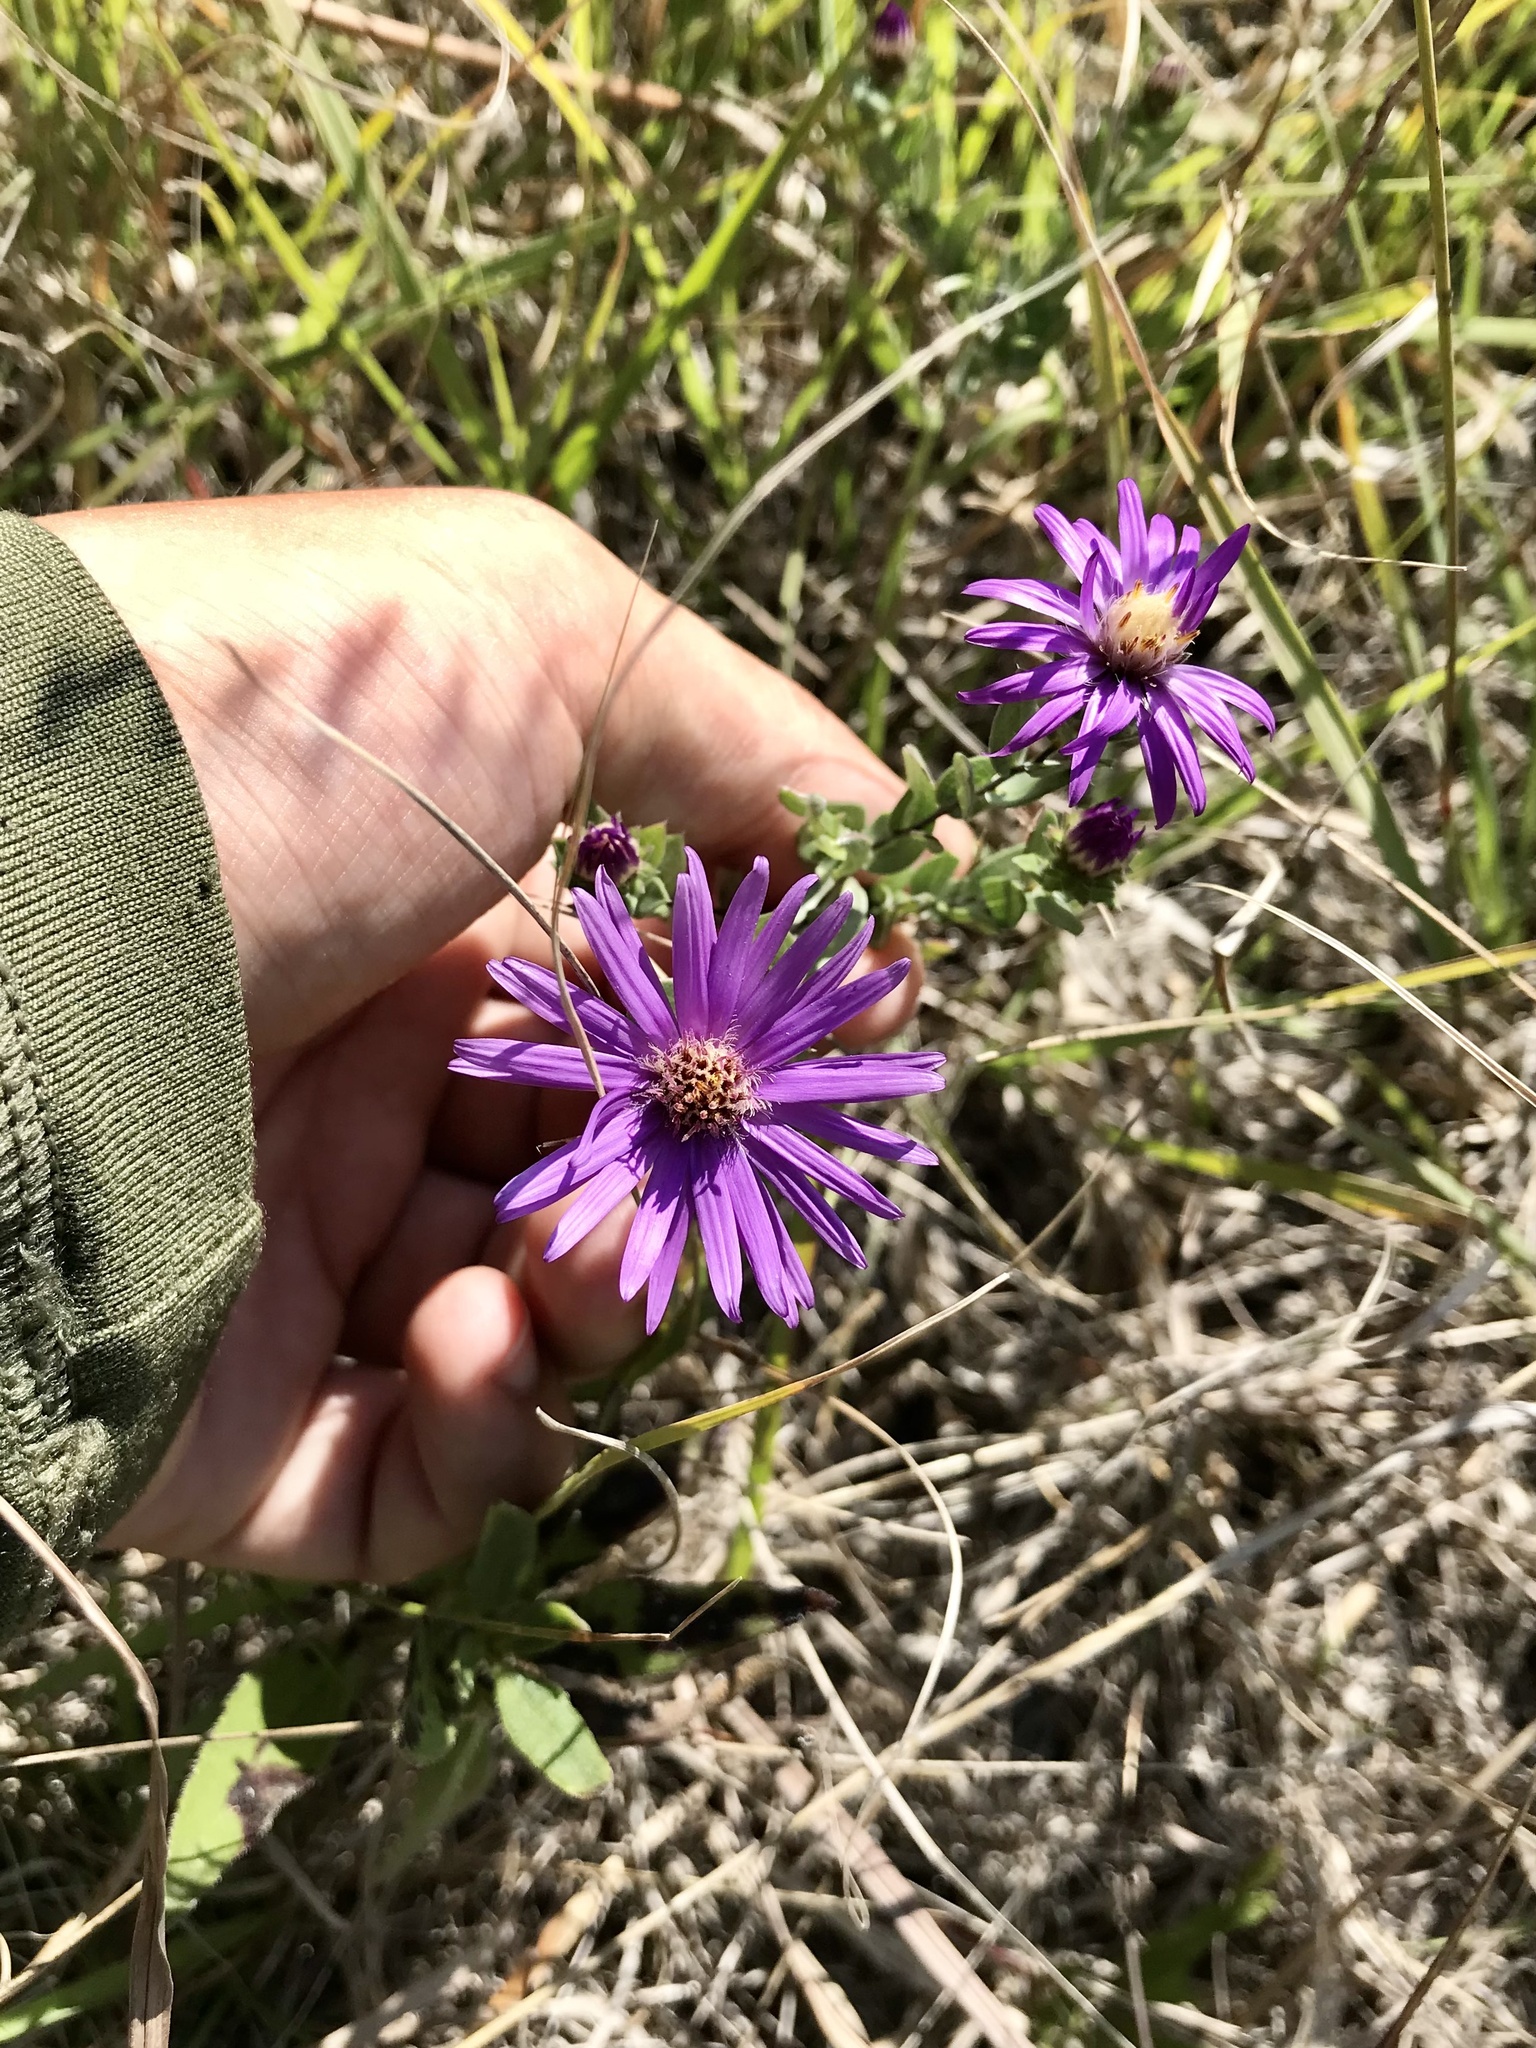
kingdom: Plantae
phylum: Tracheophyta
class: Magnoliopsida
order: Asterales
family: Asteraceae
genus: Symphyotrichum
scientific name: Symphyotrichum sericeum
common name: Silky aster
